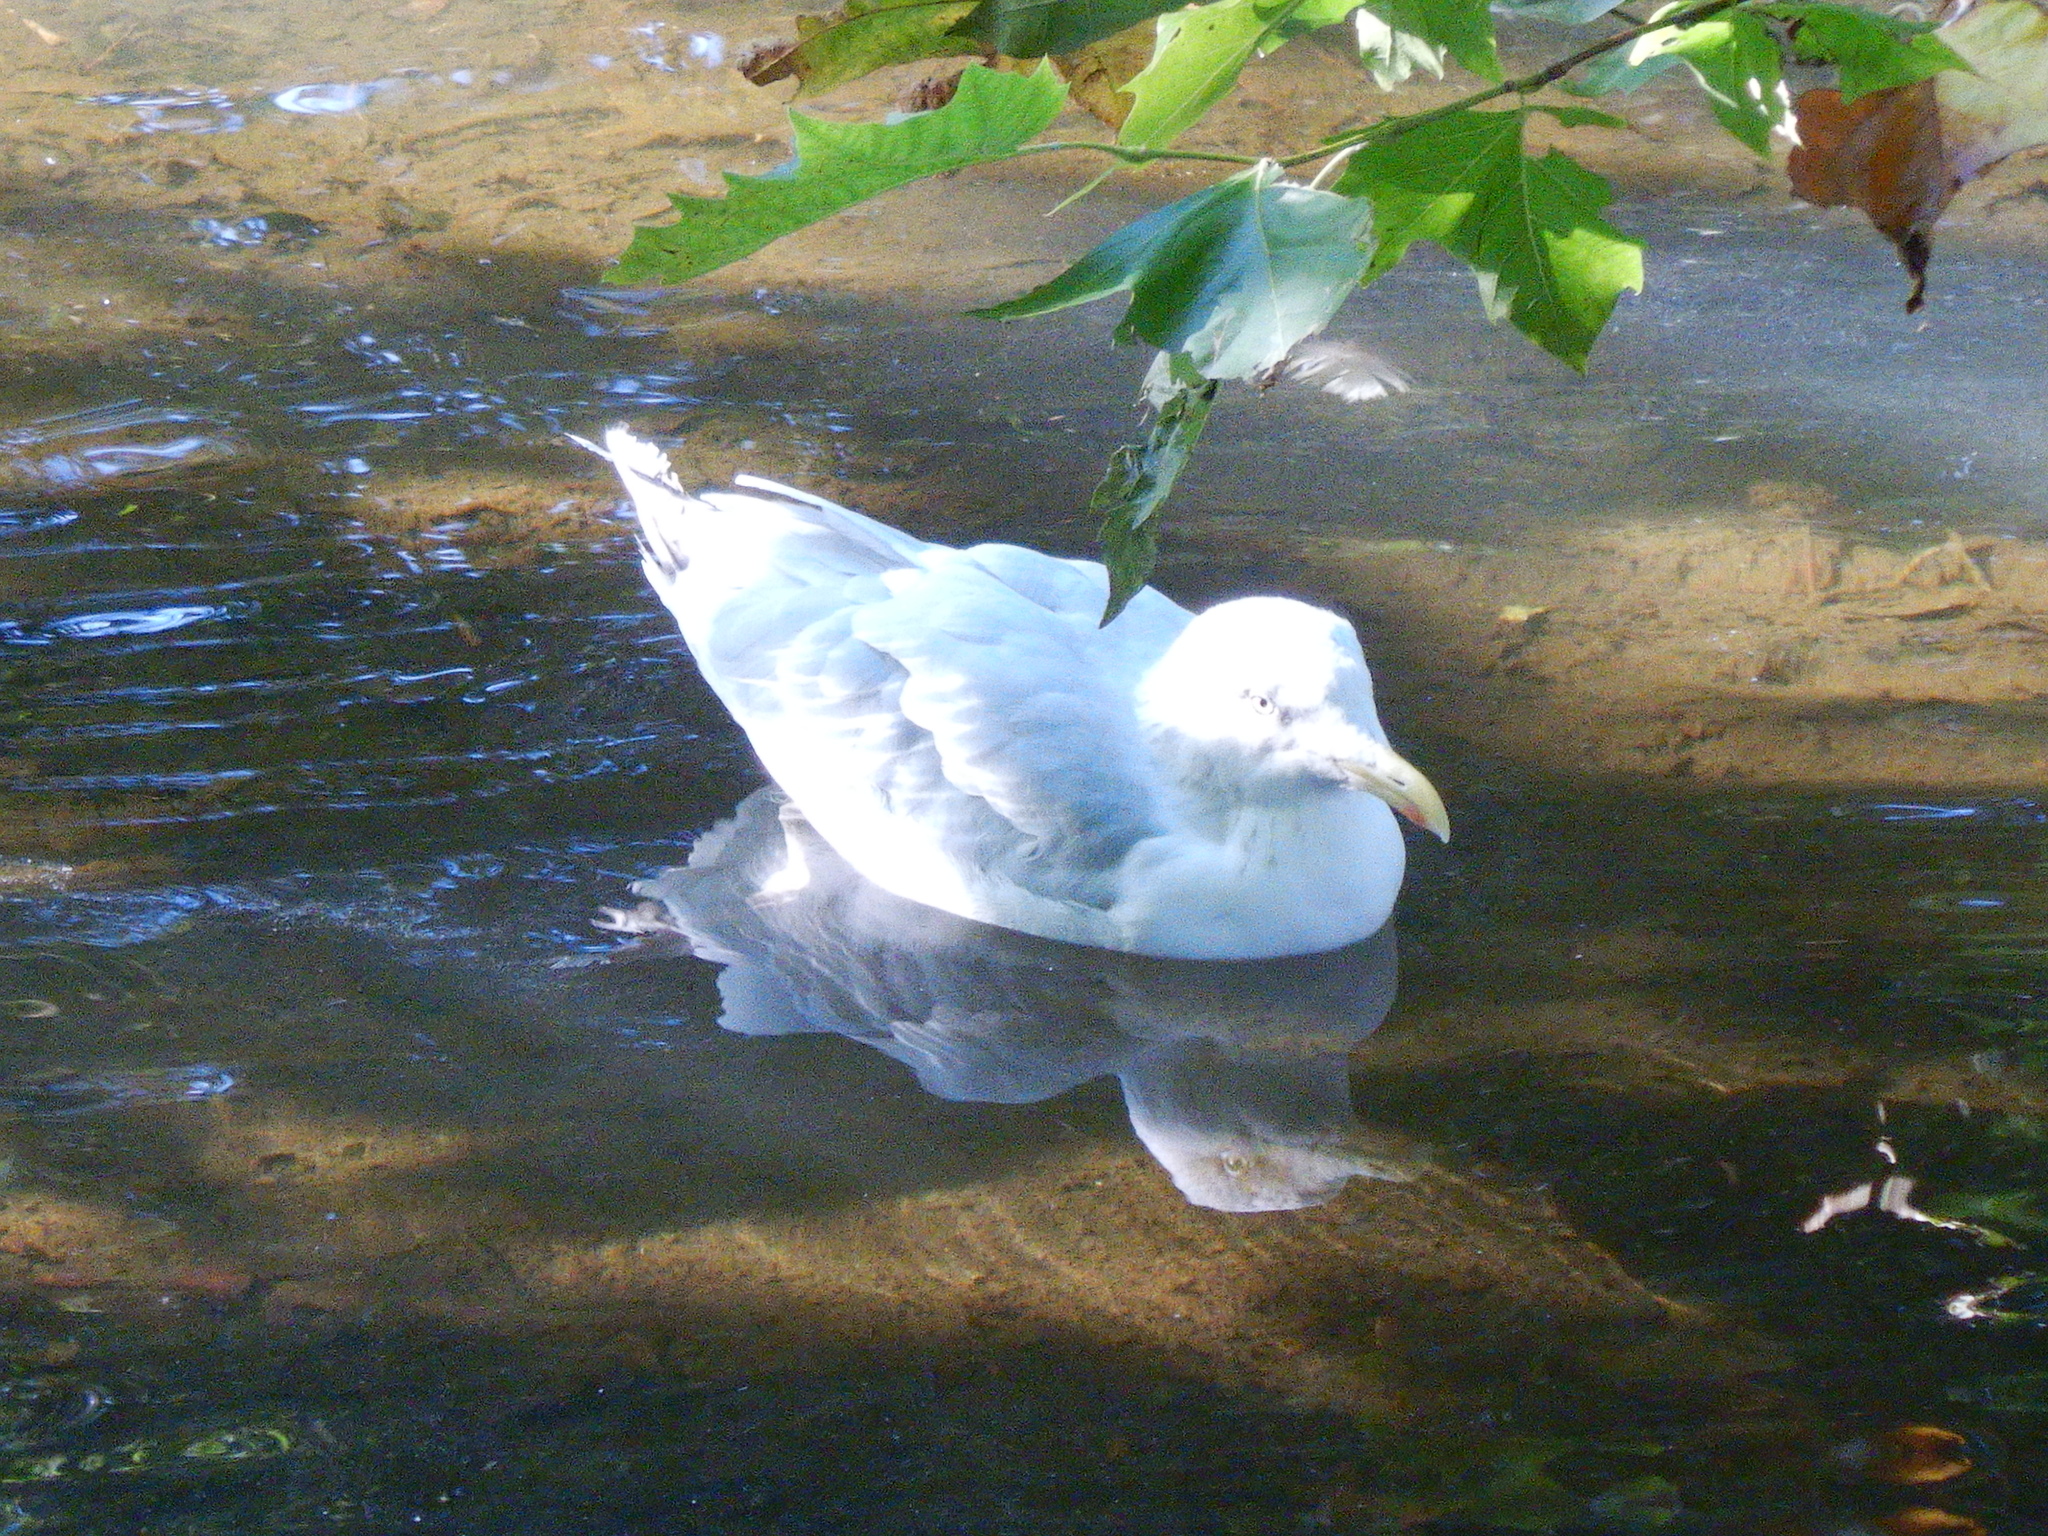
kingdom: Animalia
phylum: Chordata
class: Aves
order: Charadriiformes
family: Laridae
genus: Larus
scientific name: Larus argentatus
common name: Herring gull
